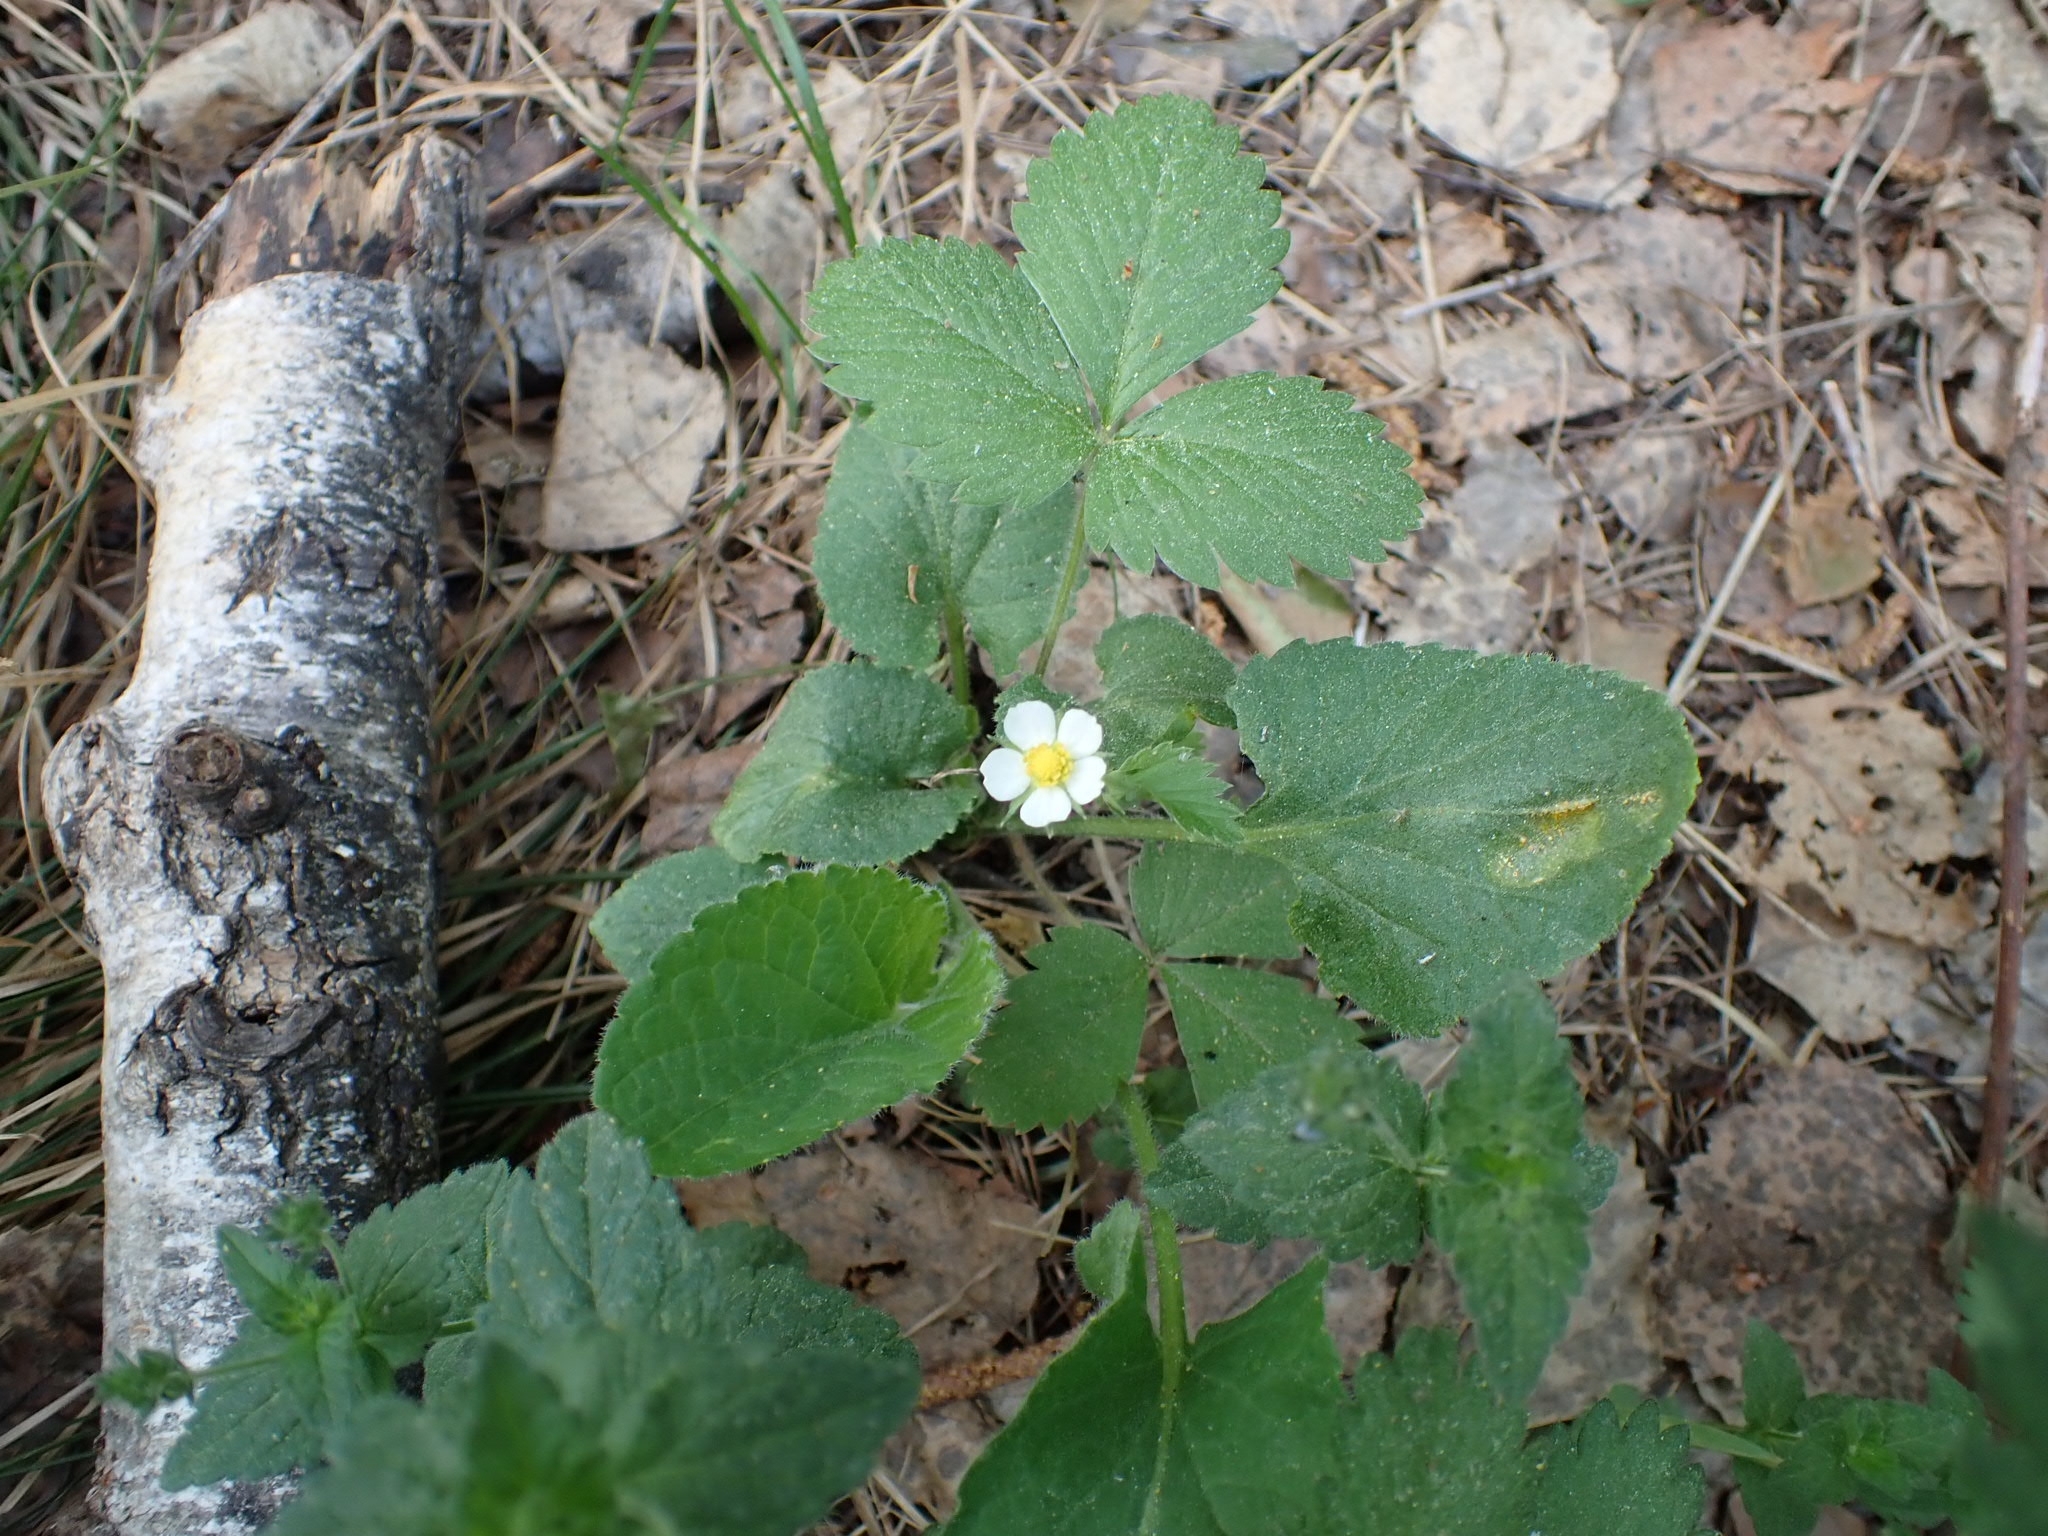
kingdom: Plantae
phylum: Tracheophyta
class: Magnoliopsida
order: Rosales
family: Rosaceae
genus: Fragaria
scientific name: Fragaria vesca
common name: Wild strawberry
